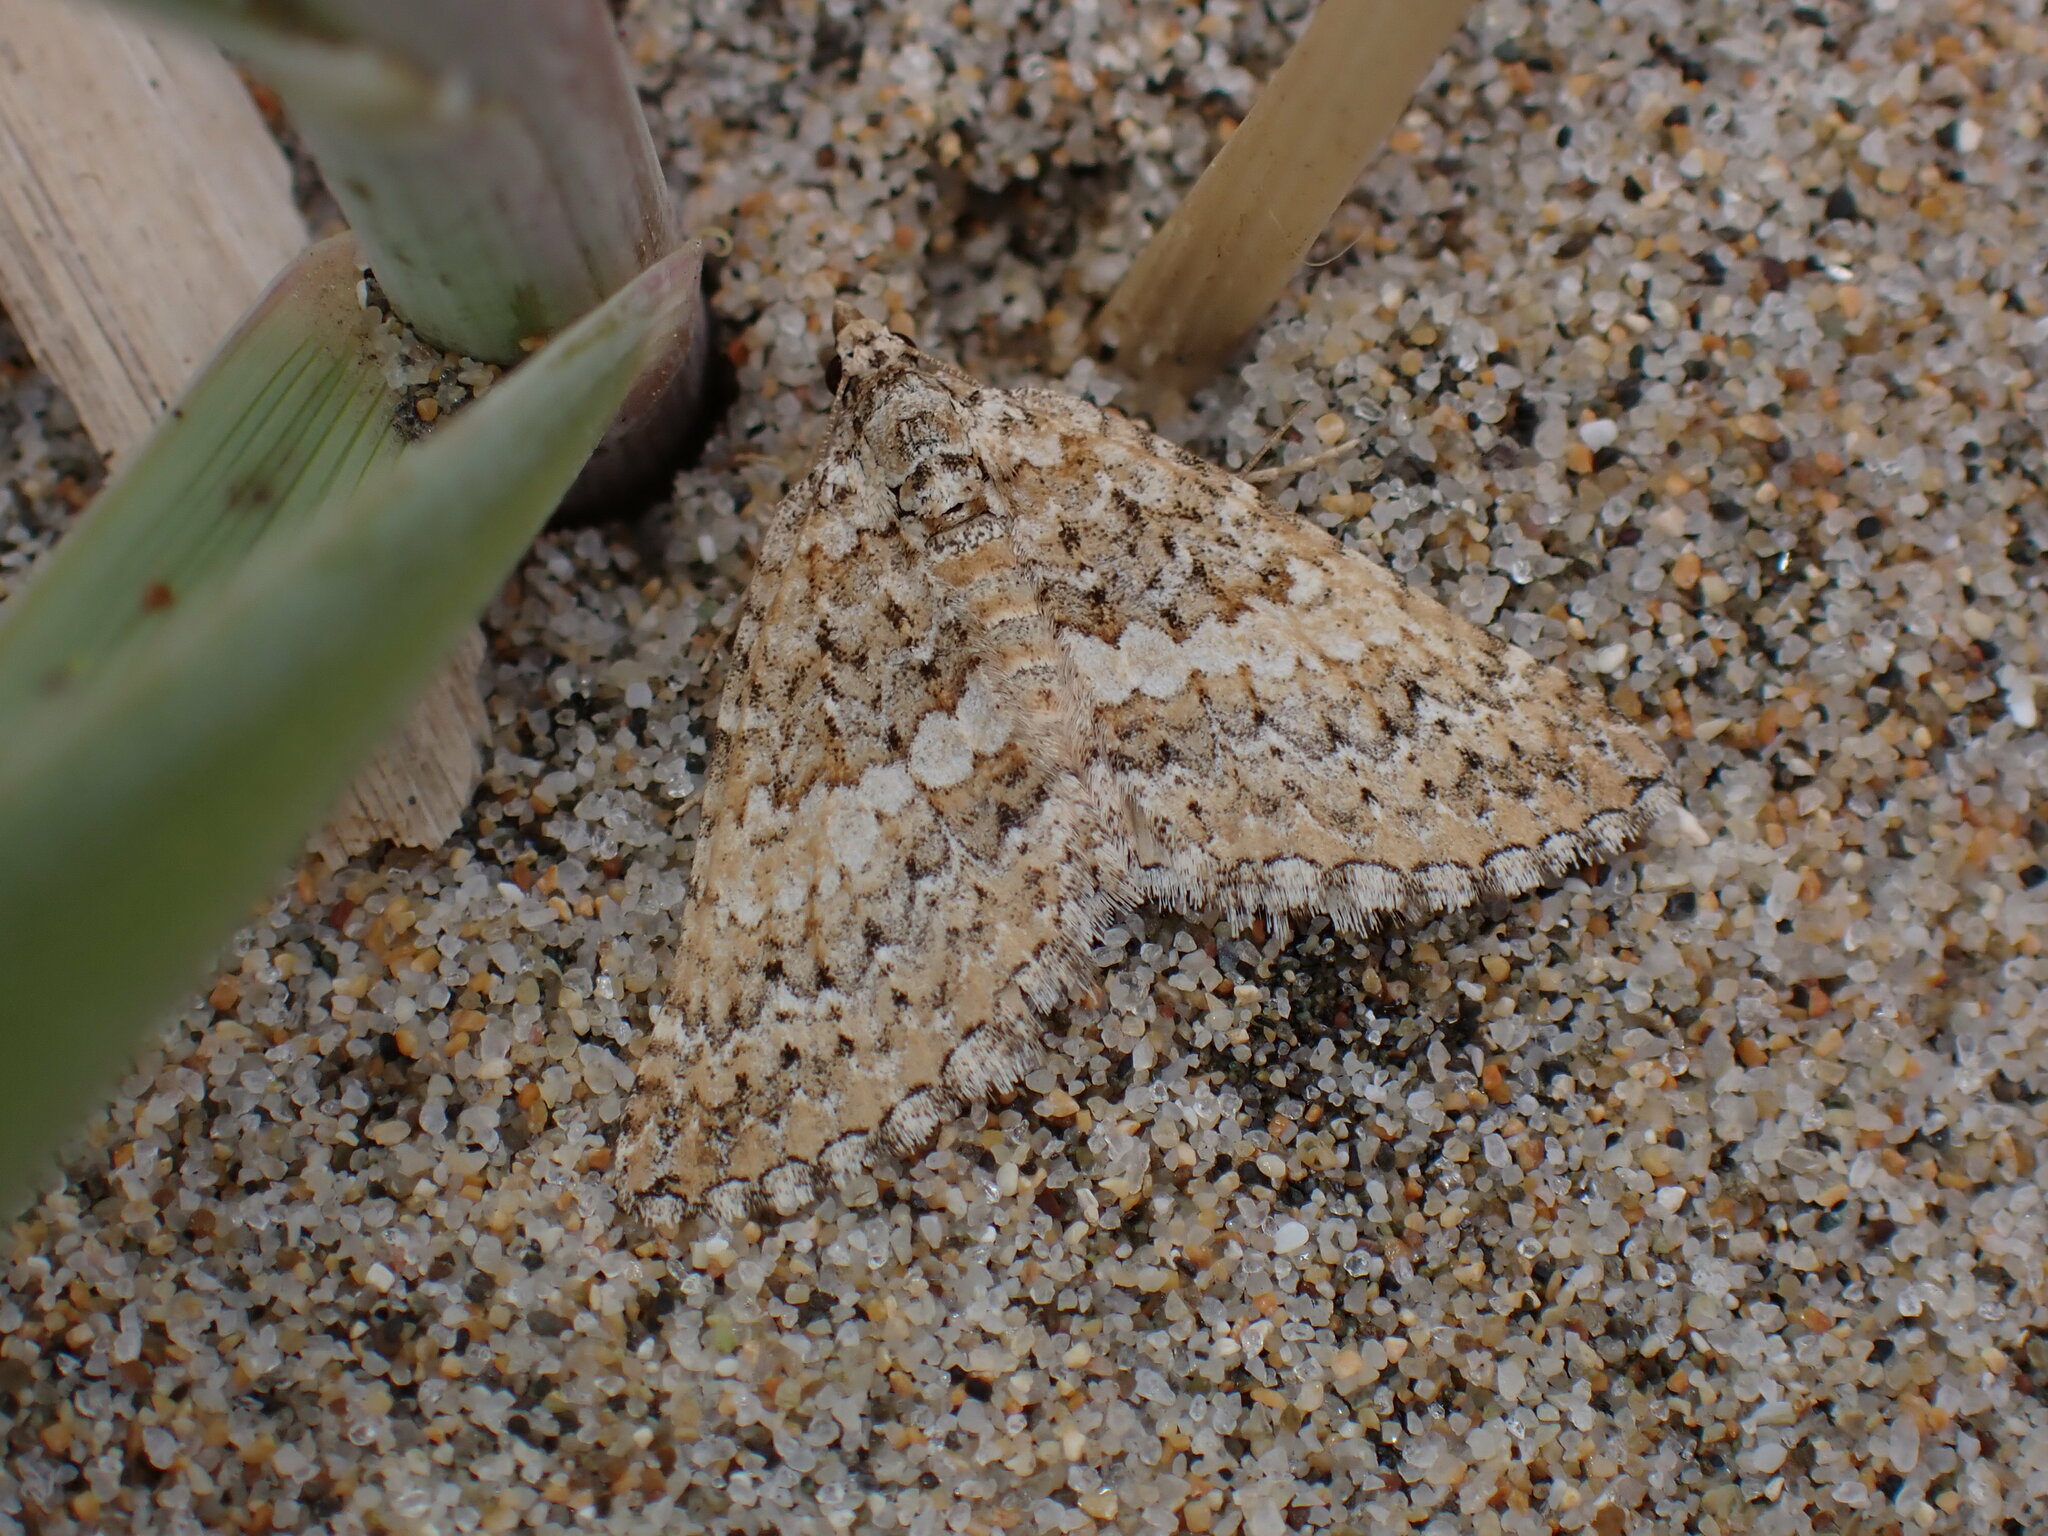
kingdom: Animalia
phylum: Arthropoda
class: Insecta
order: Lepidoptera
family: Geometridae
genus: Euphyia
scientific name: Euphyia implicata
